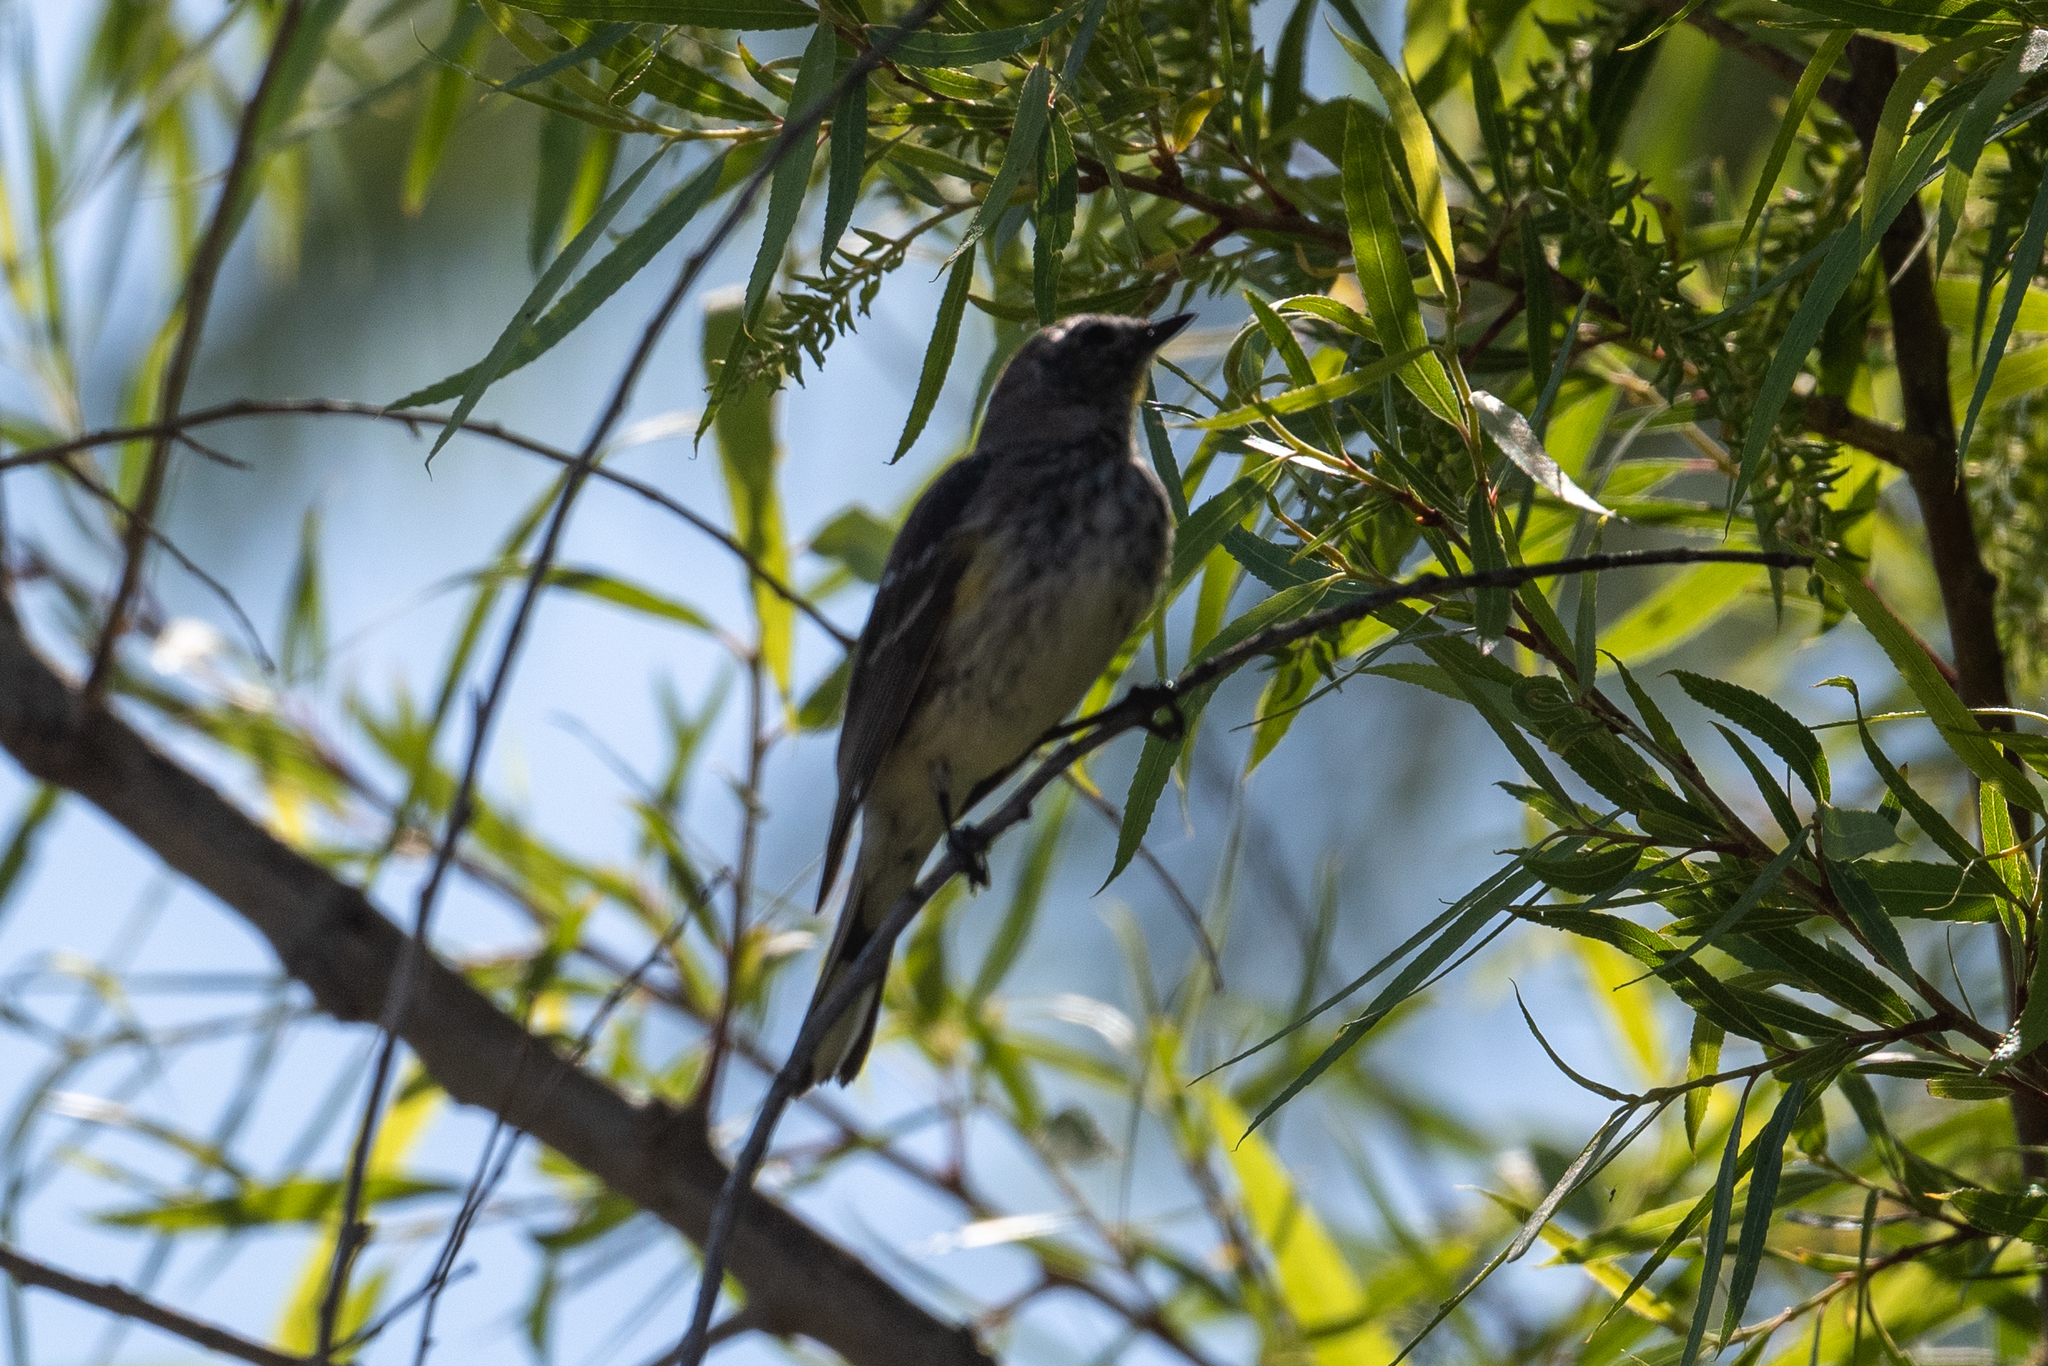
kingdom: Animalia
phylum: Chordata
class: Aves
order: Passeriformes
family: Parulidae
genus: Setophaga
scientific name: Setophaga coronata
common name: Myrtle warbler
